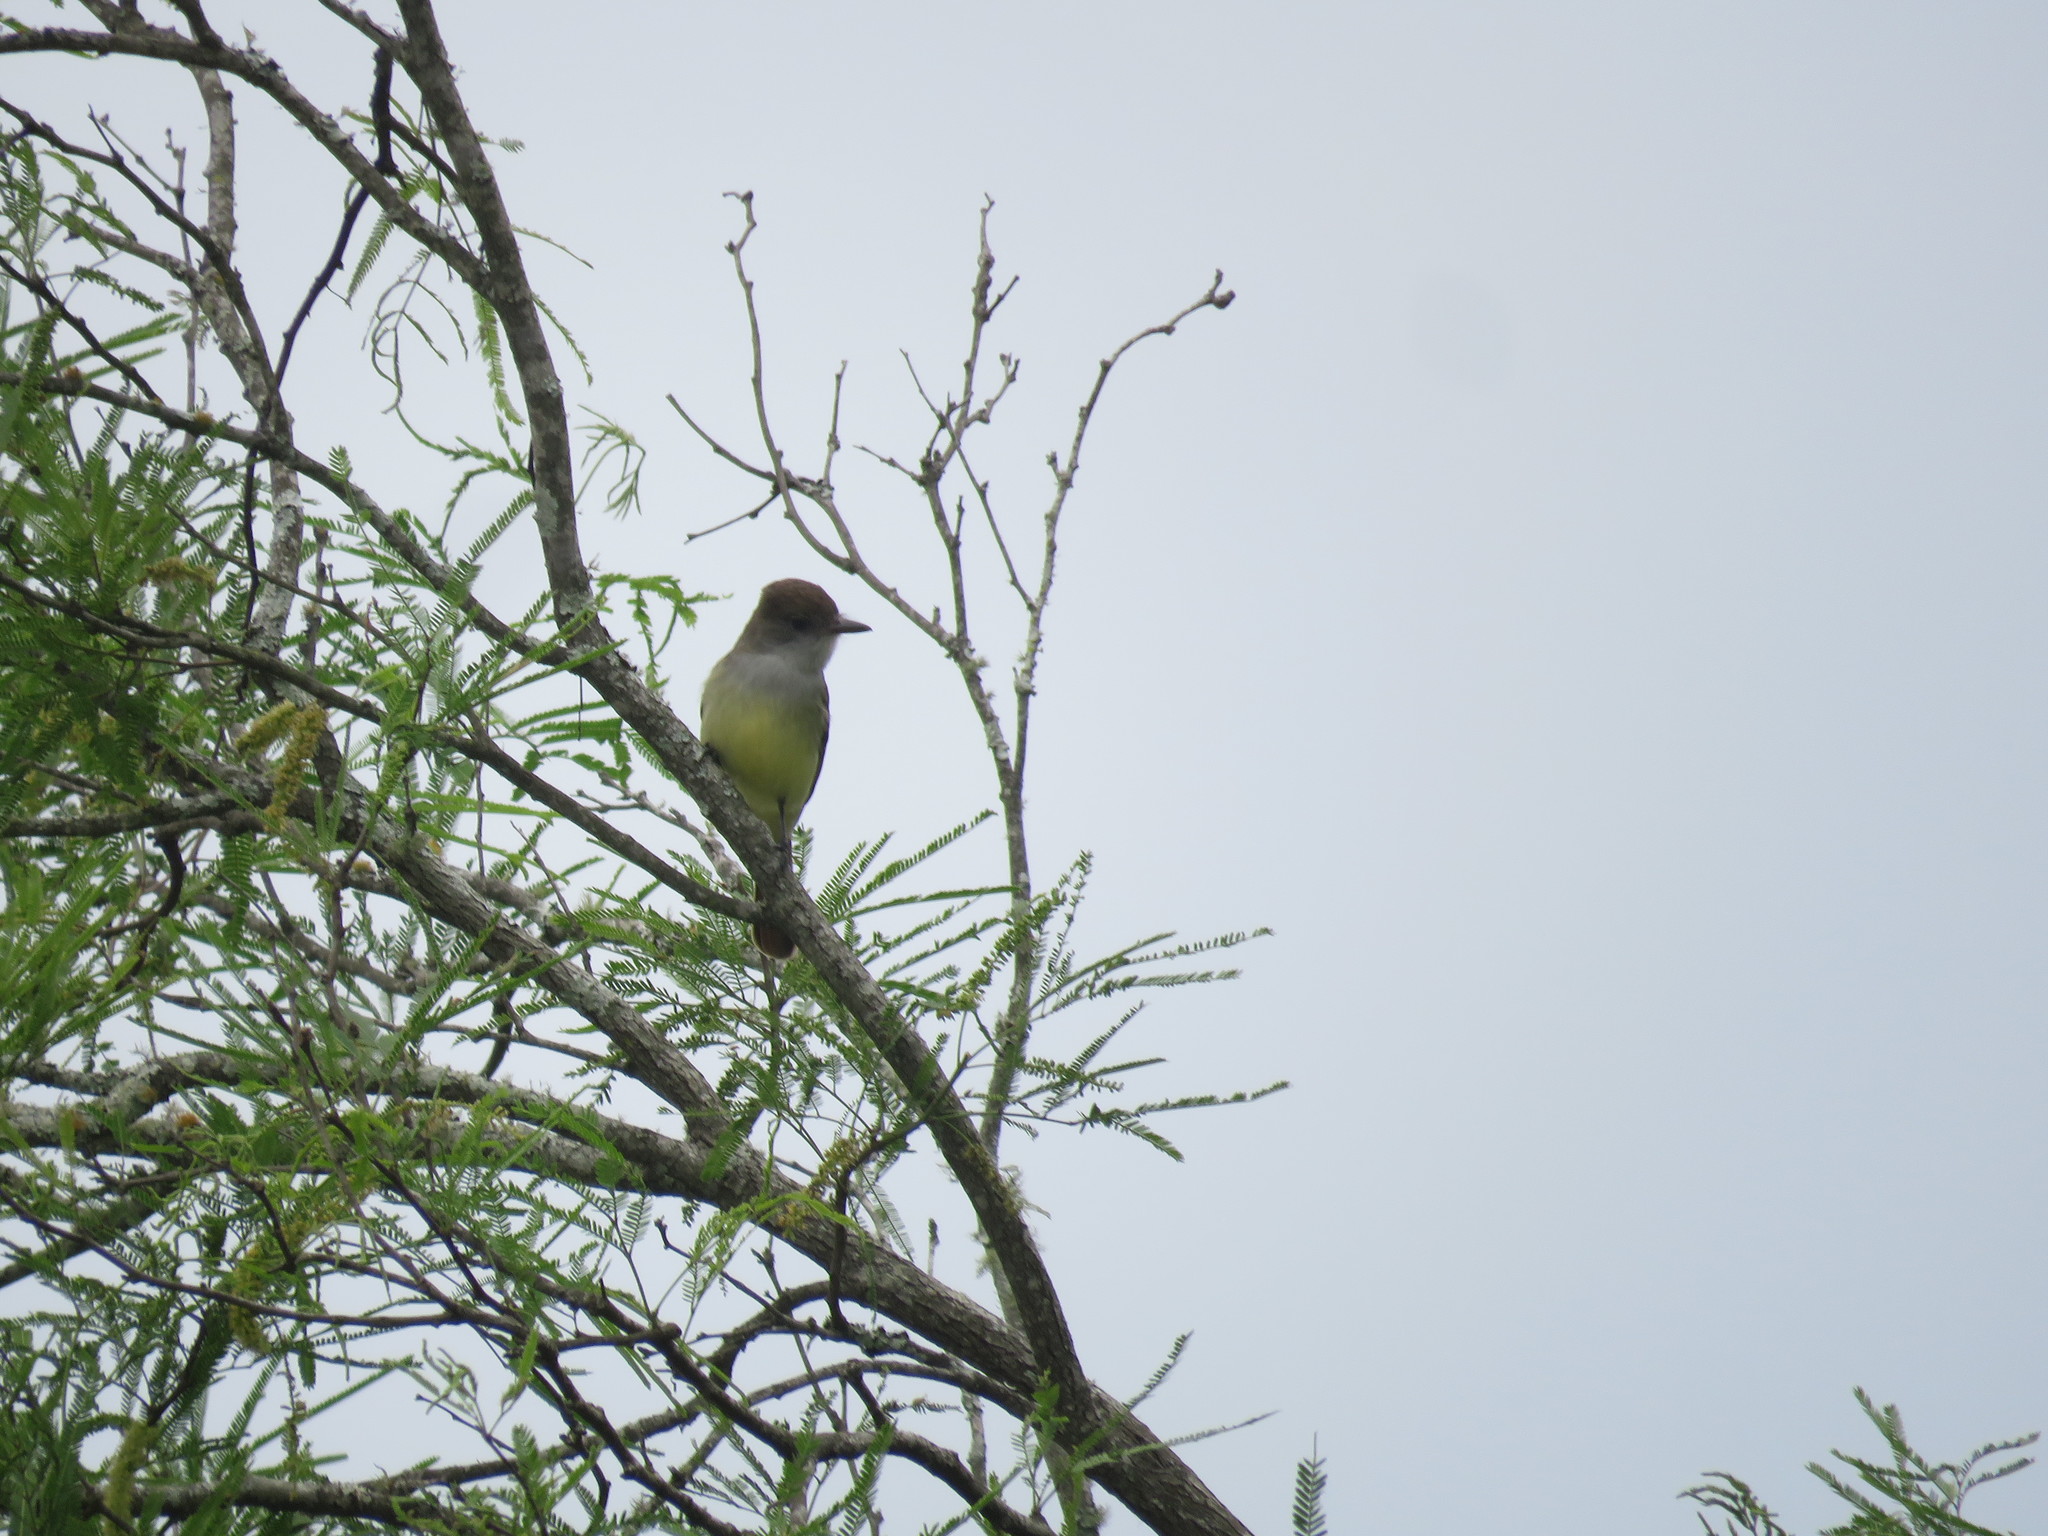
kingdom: Animalia
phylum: Chordata
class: Aves
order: Passeriformes
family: Tyrannidae
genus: Myiarchus
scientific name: Myiarchus tyrannulus
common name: Brown-crested flycatcher
